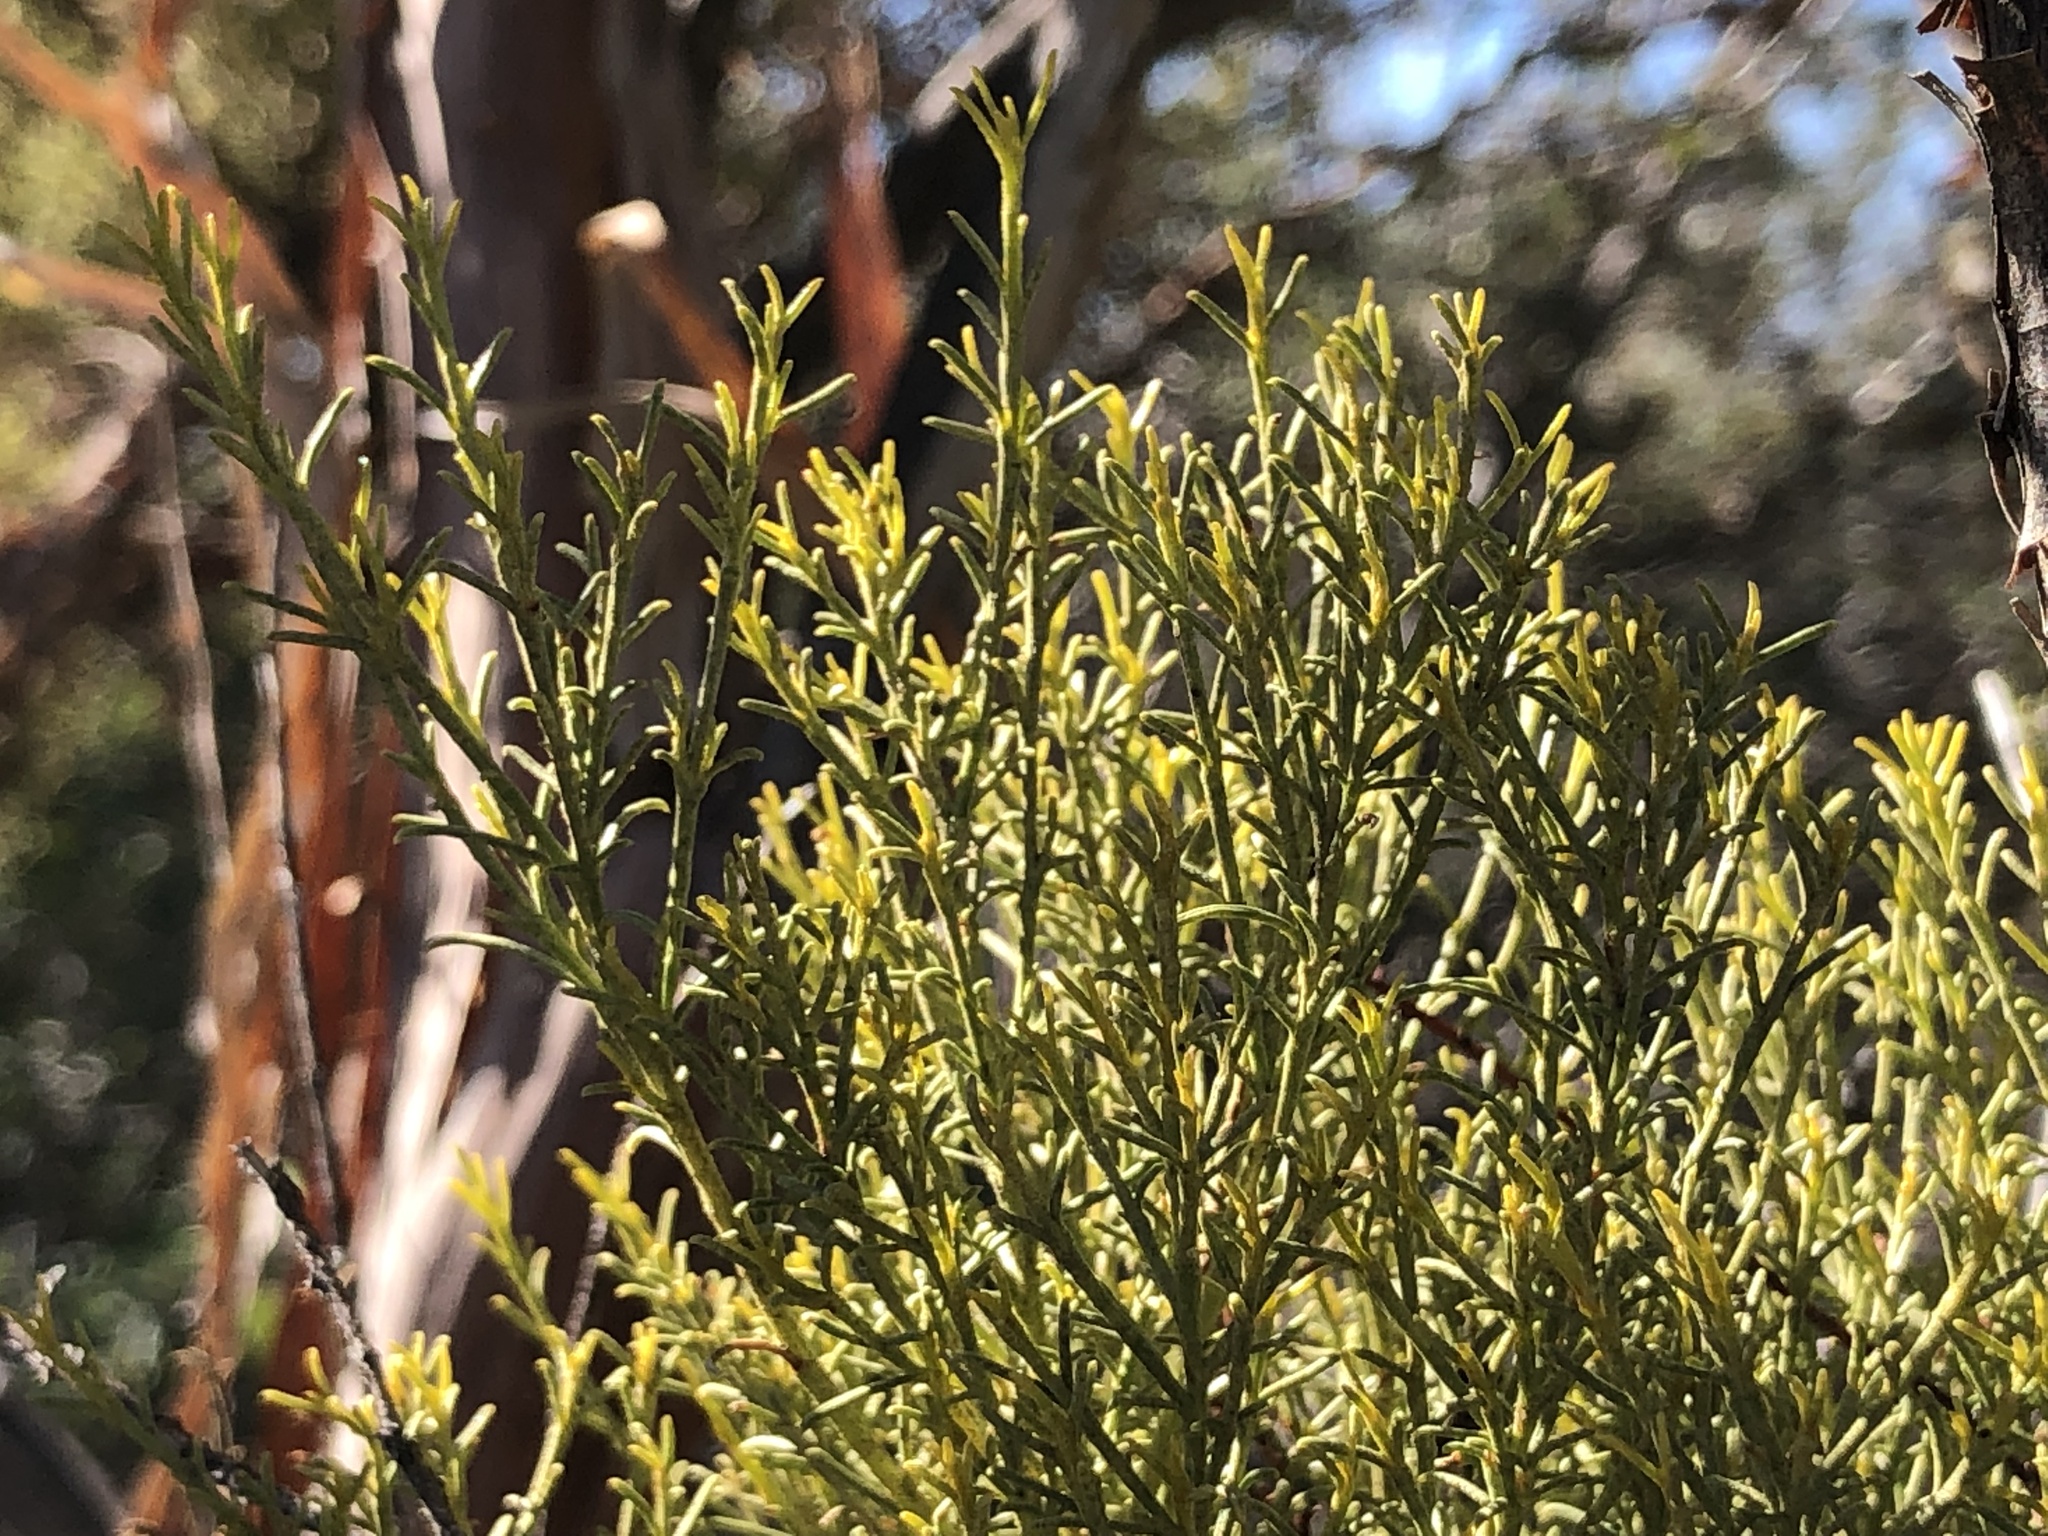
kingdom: Plantae
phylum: Tracheophyta
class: Magnoliopsida
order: Rosales
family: Rosaceae
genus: Adenostoma
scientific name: Adenostoma sparsifolium
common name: Red shank
